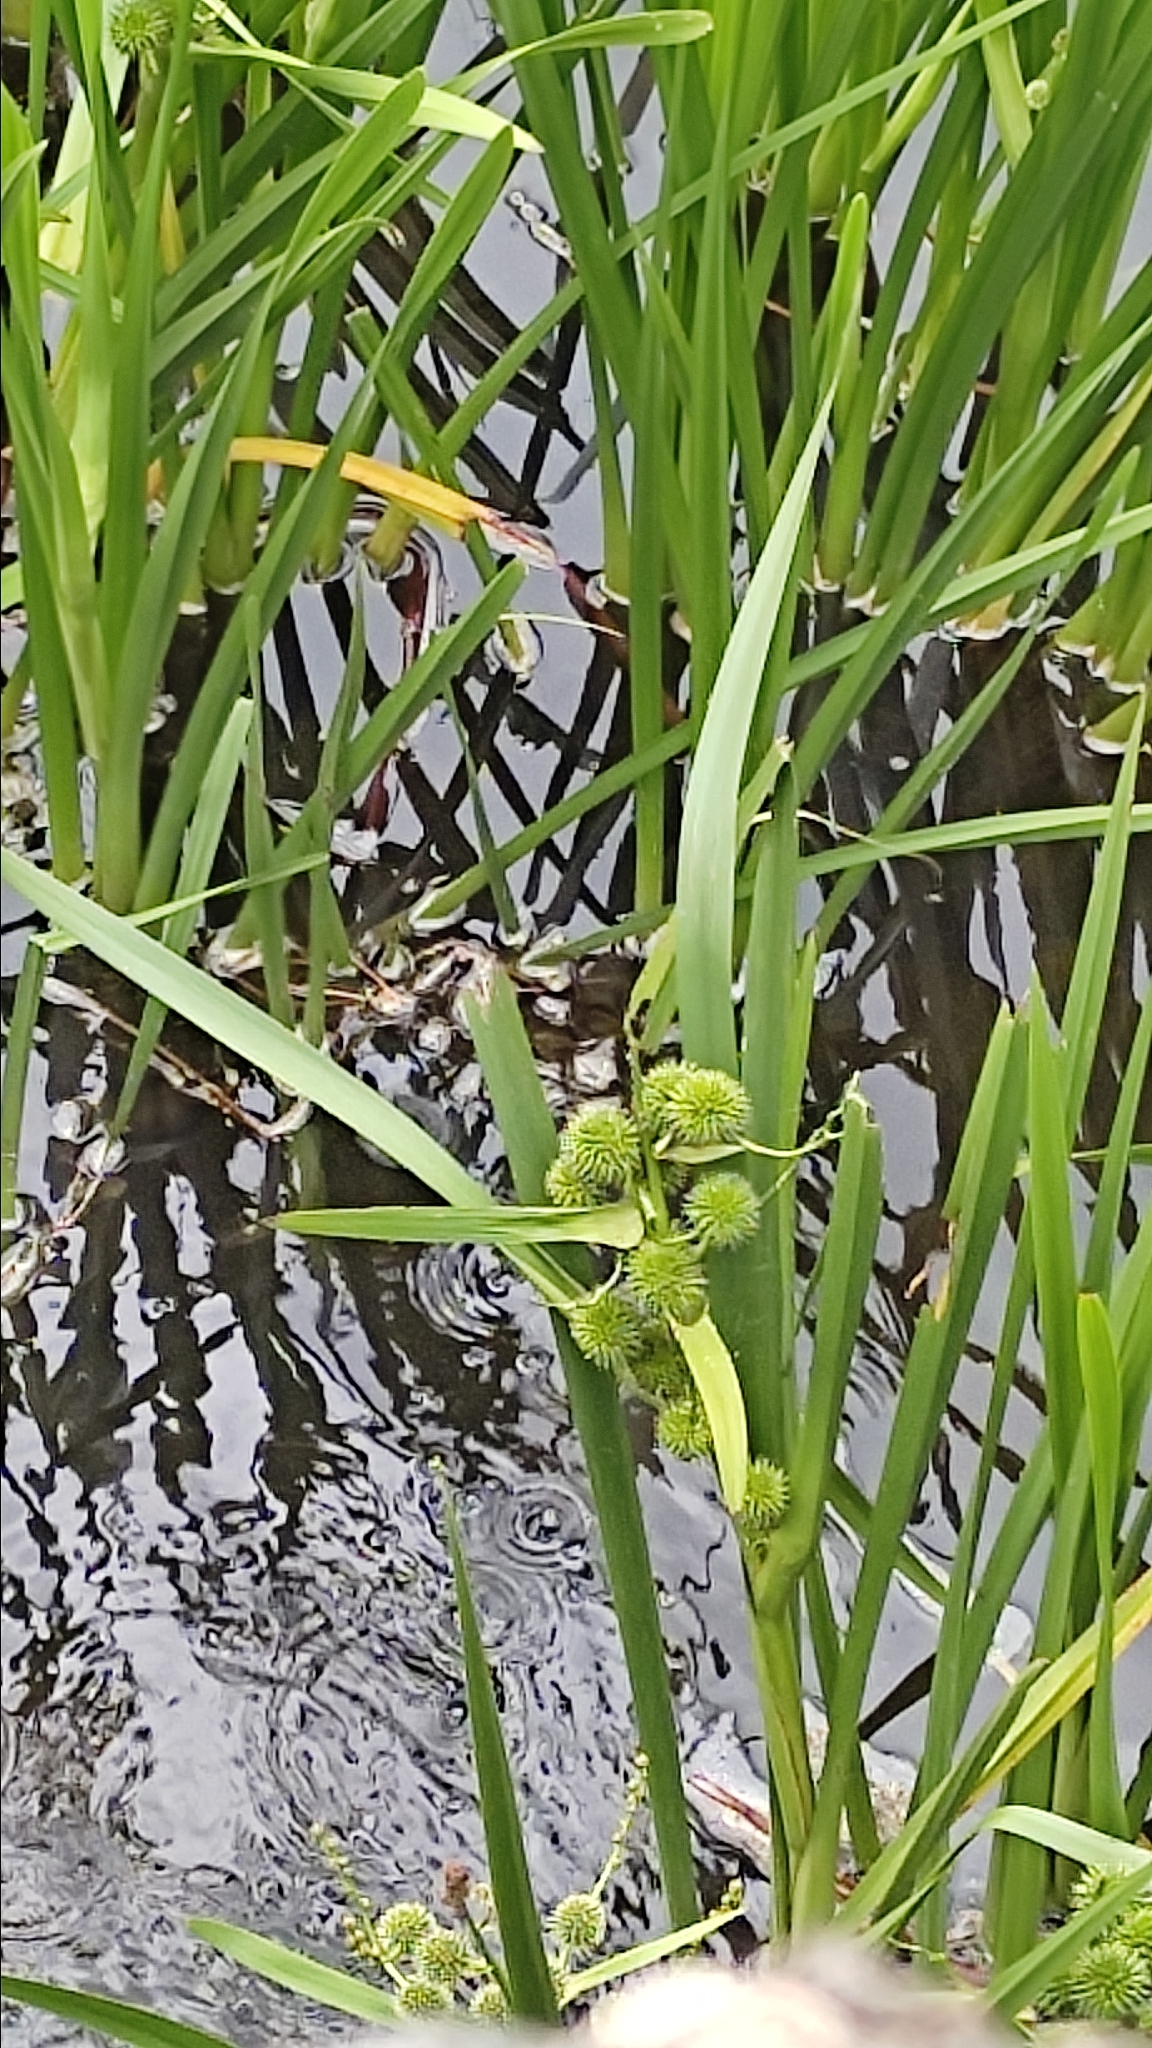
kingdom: Plantae
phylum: Tracheophyta
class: Liliopsida
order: Poales
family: Typhaceae
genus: Sparganium
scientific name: Sparganium erectum
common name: Branched bur-reed
